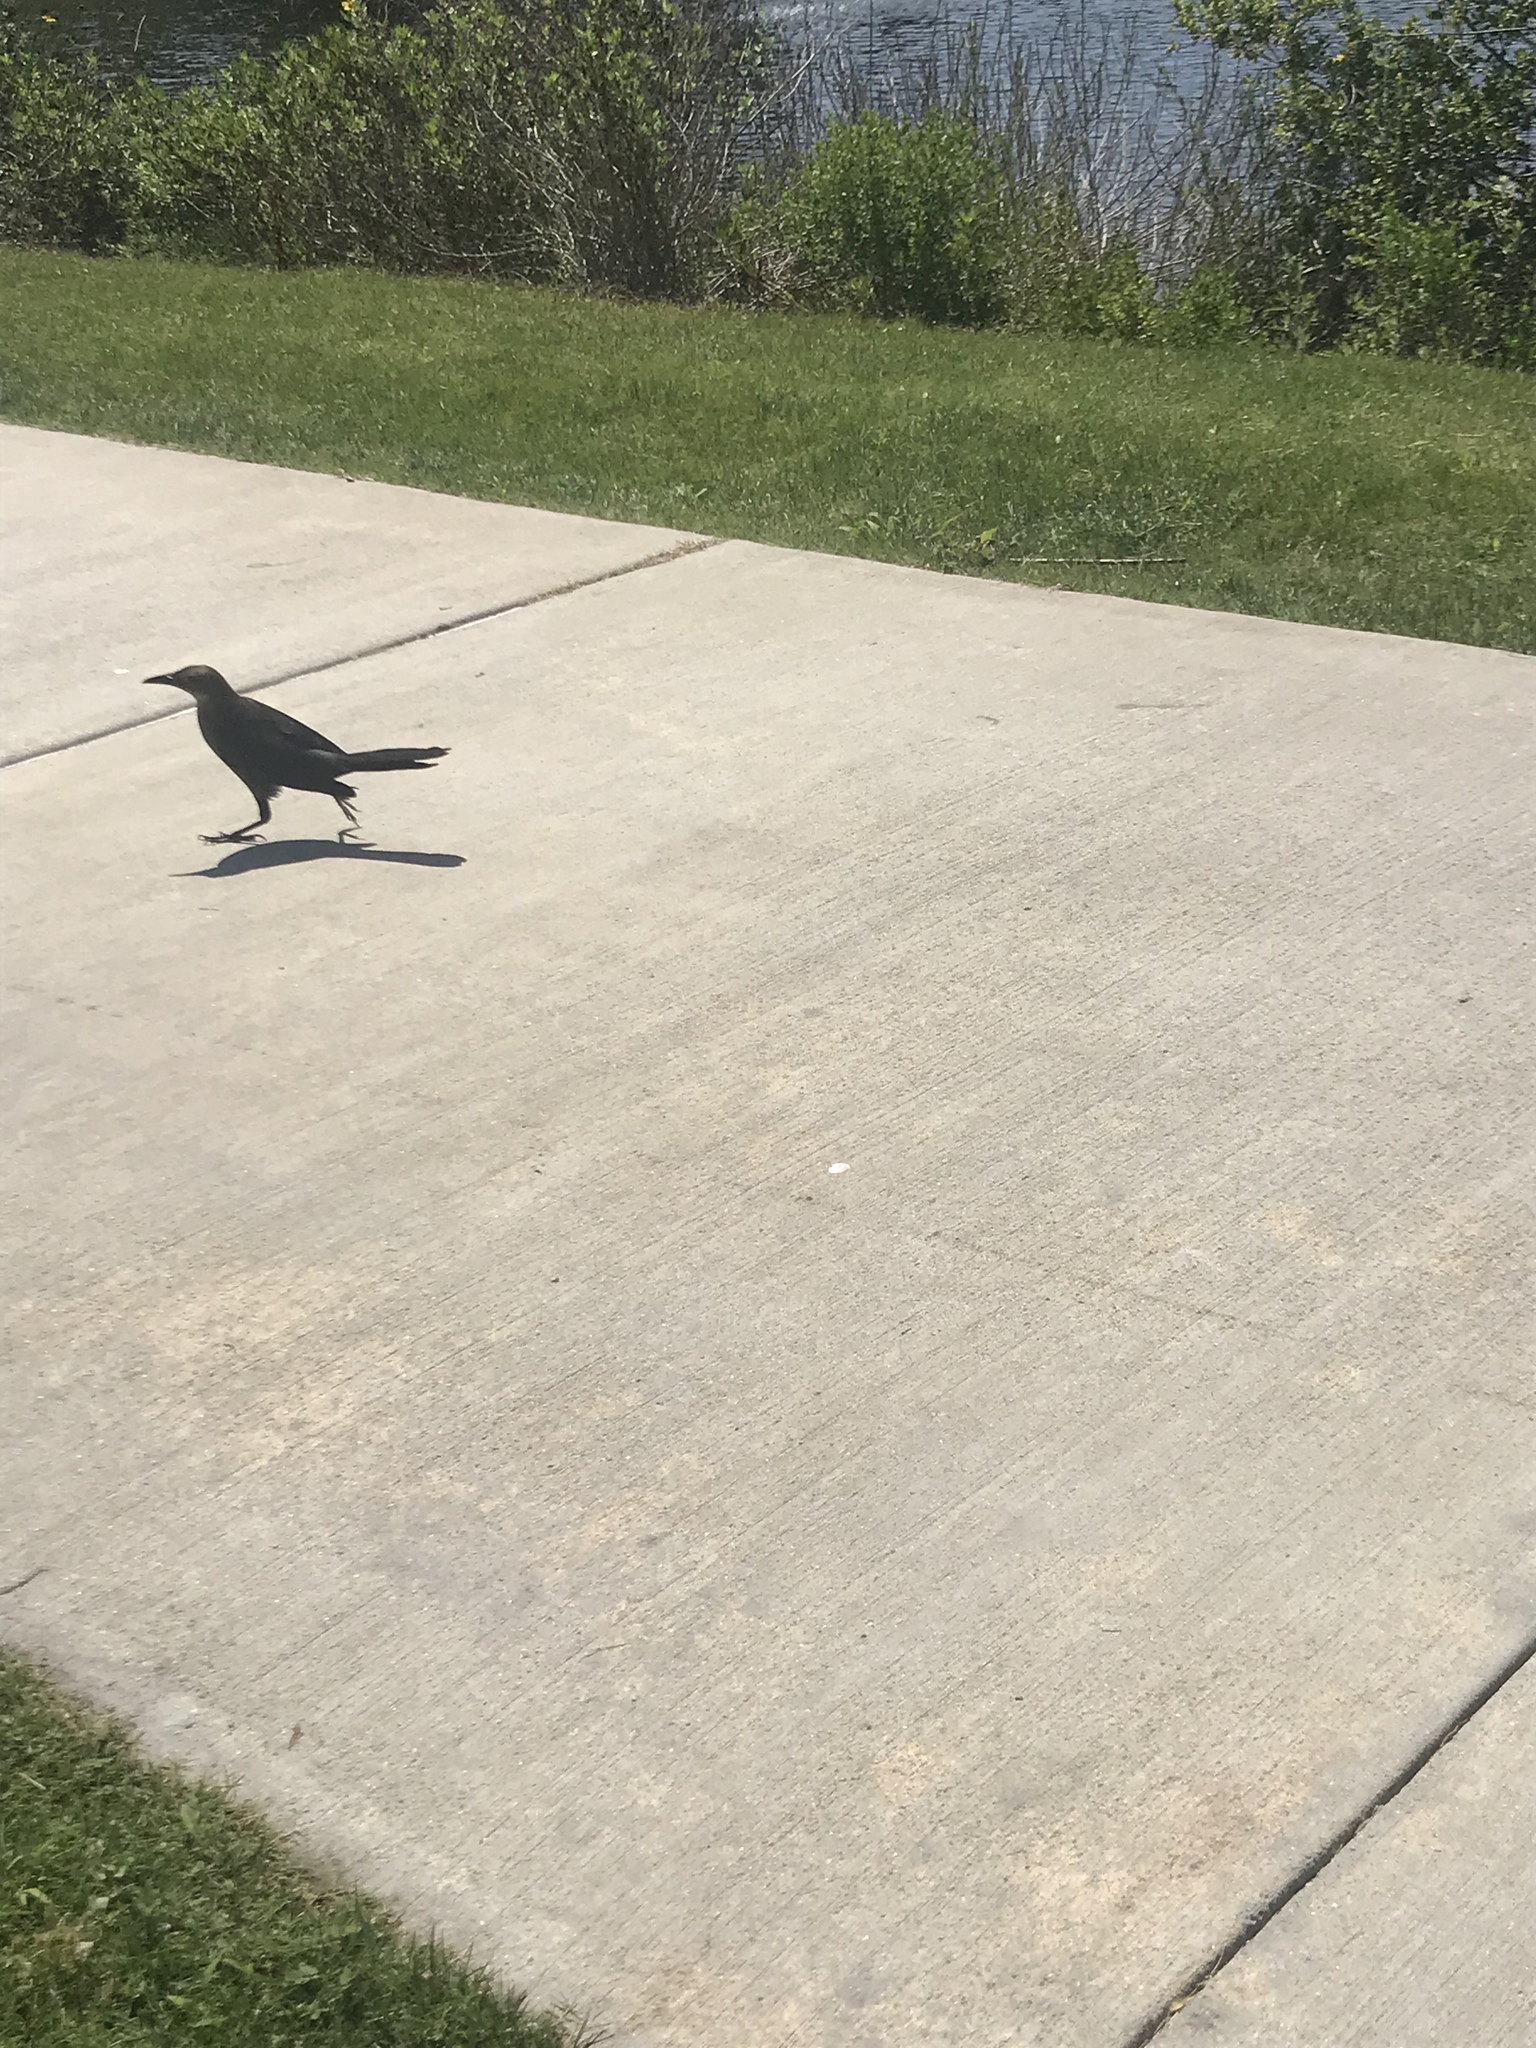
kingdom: Animalia
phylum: Chordata
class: Aves
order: Passeriformes
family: Icteridae
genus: Quiscalus
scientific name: Quiscalus mexicanus
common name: Great-tailed grackle
